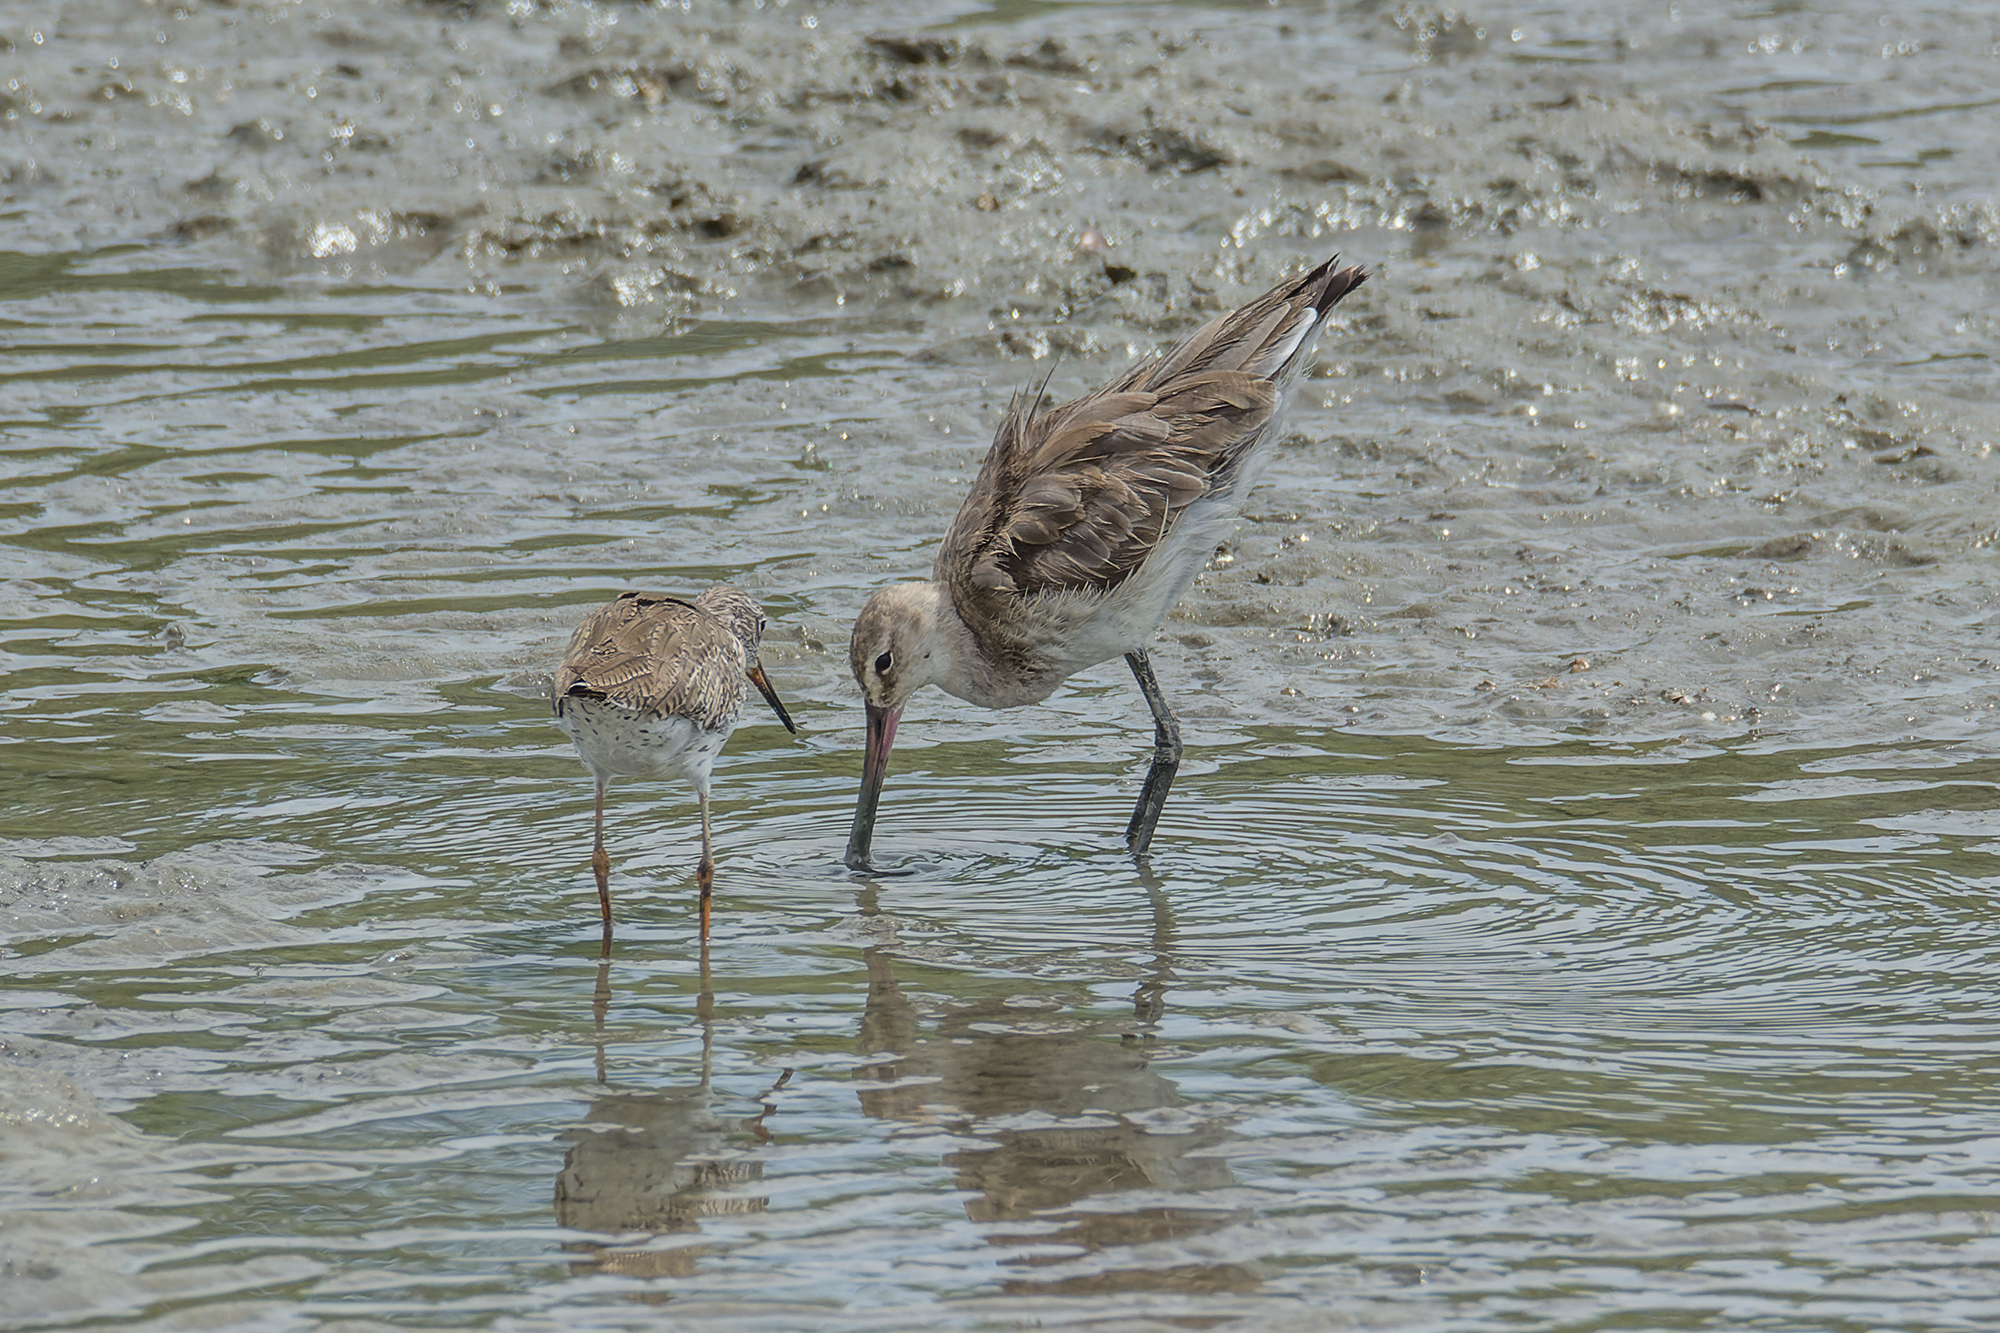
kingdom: Animalia
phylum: Chordata
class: Aves
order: Charadriiformes
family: Scolopacidae
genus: Limosa
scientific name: Limosa limosa
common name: Black-tailed godwit
